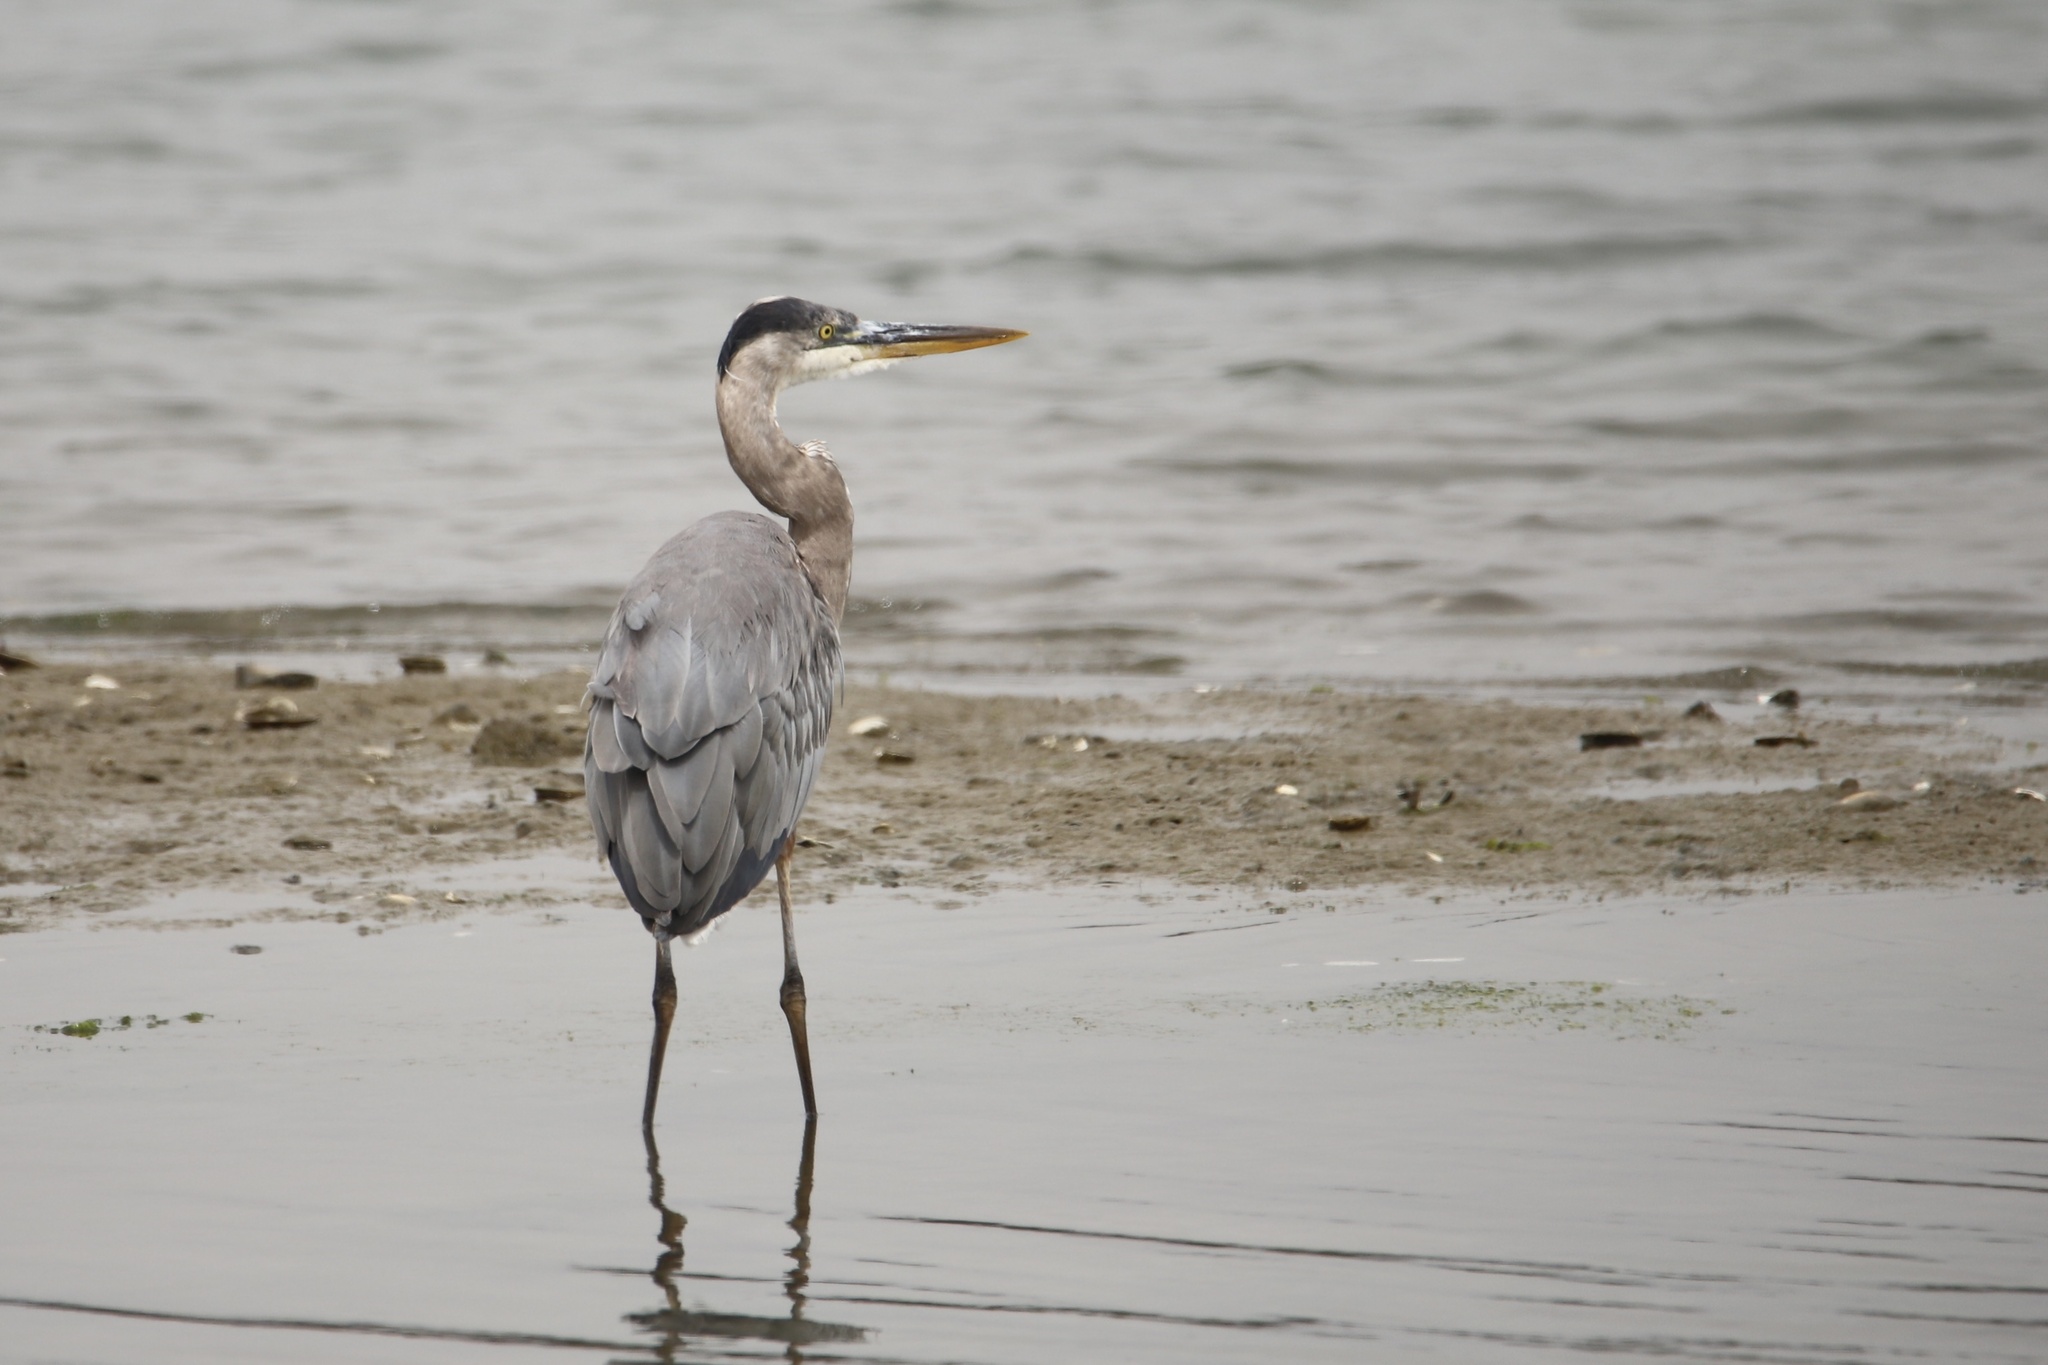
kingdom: Animalia
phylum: Chordata
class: Aves
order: Pelecaniformes
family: Ardeidae
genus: Ardea
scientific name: Ardea herodias
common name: Great blue heron
